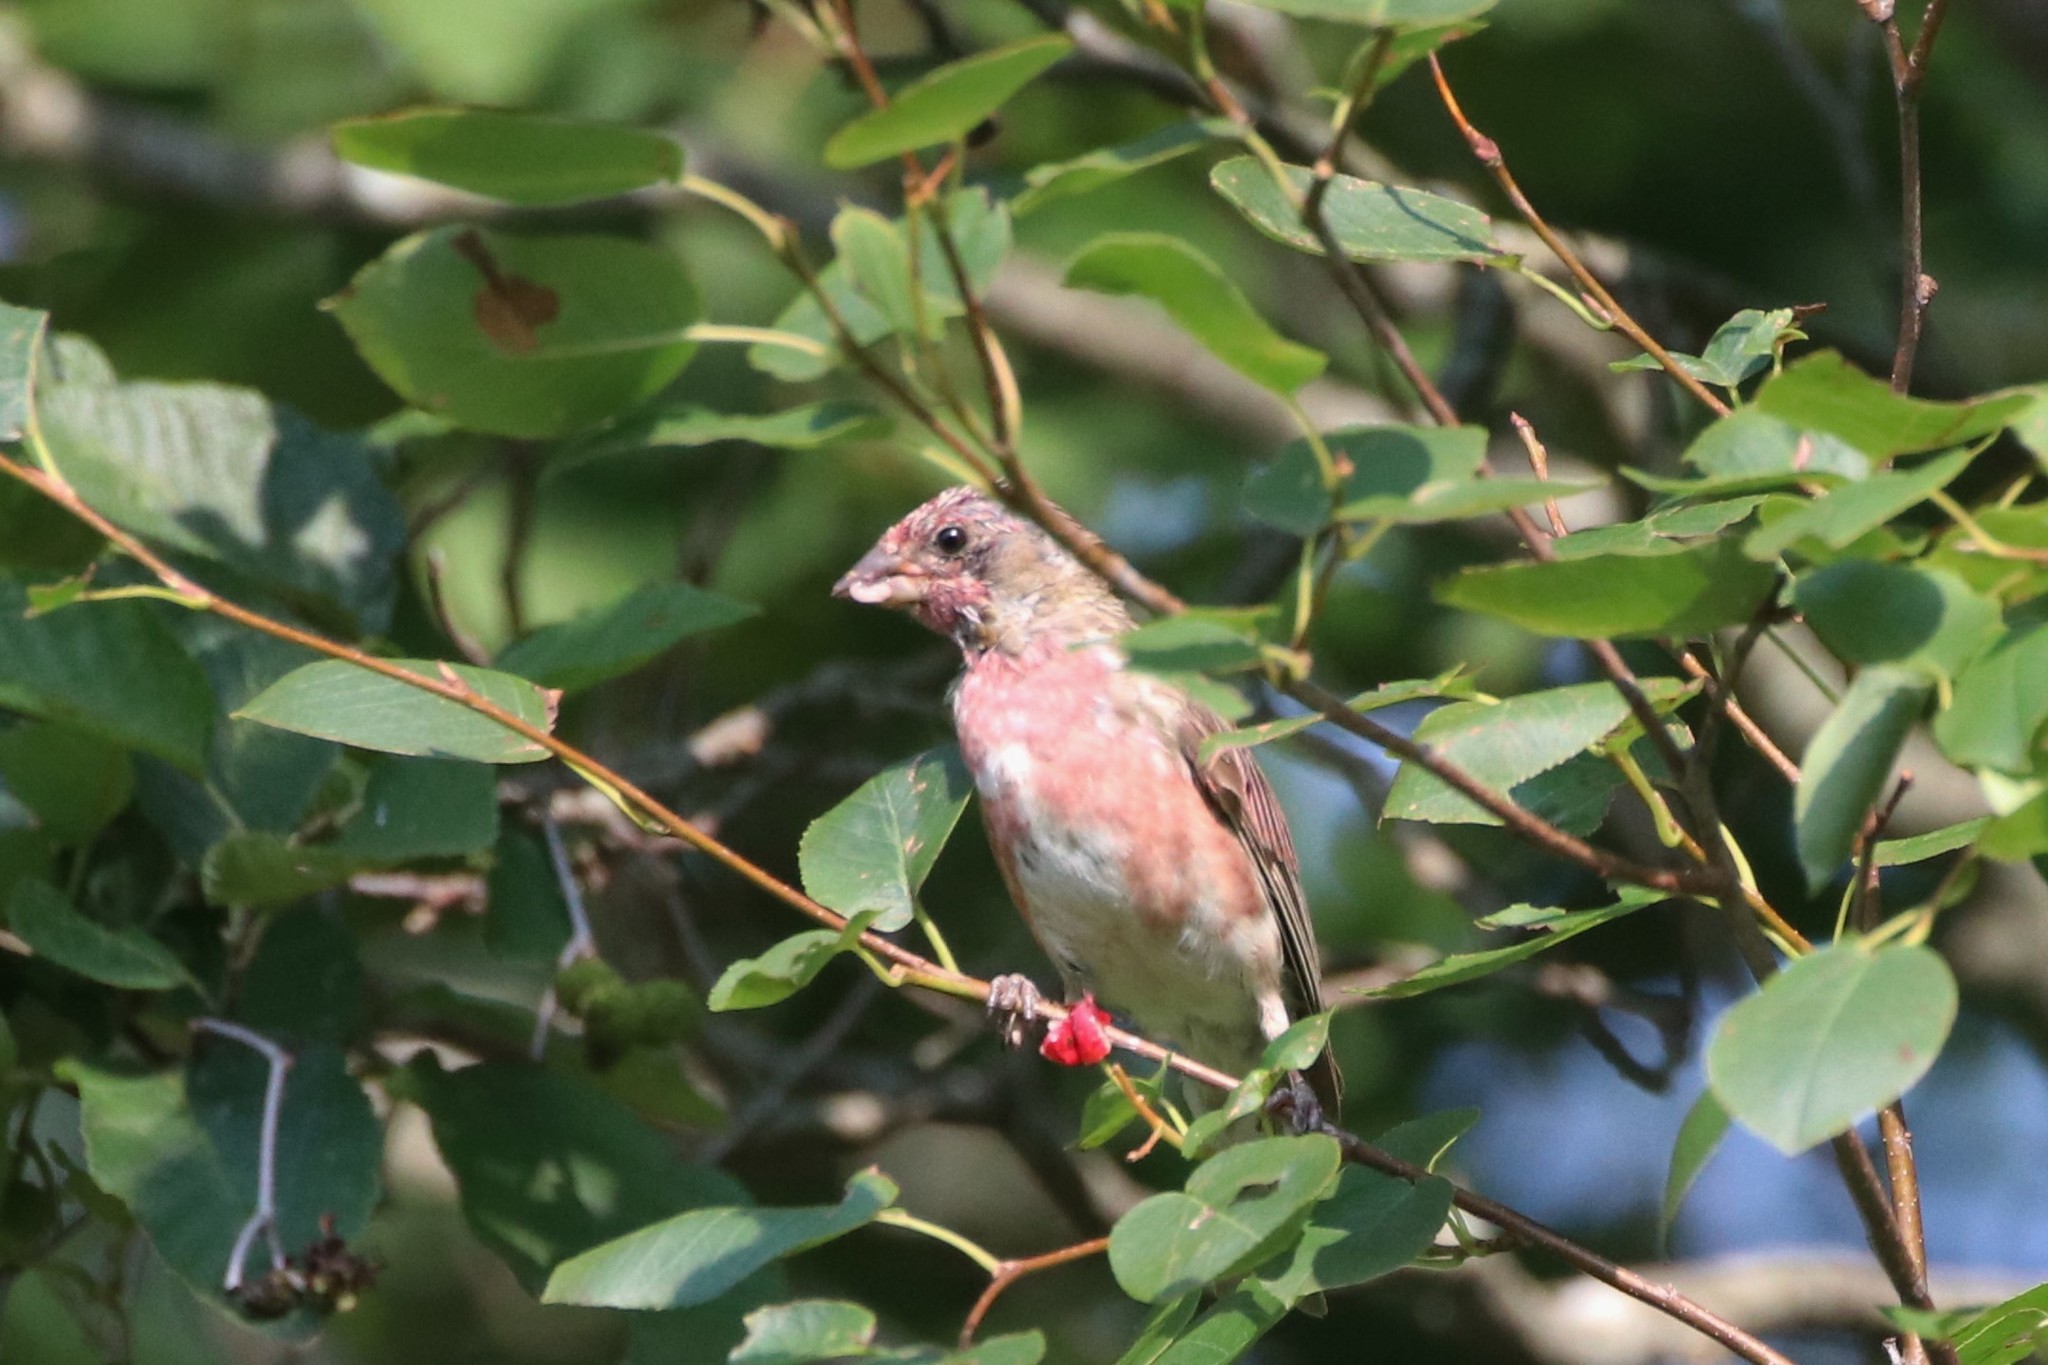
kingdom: Animalia
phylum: Chordata
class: Aves
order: Passeriformes
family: Fringillidae
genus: Haemorhous
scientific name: Haemorhous purpureus
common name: Purple finch
